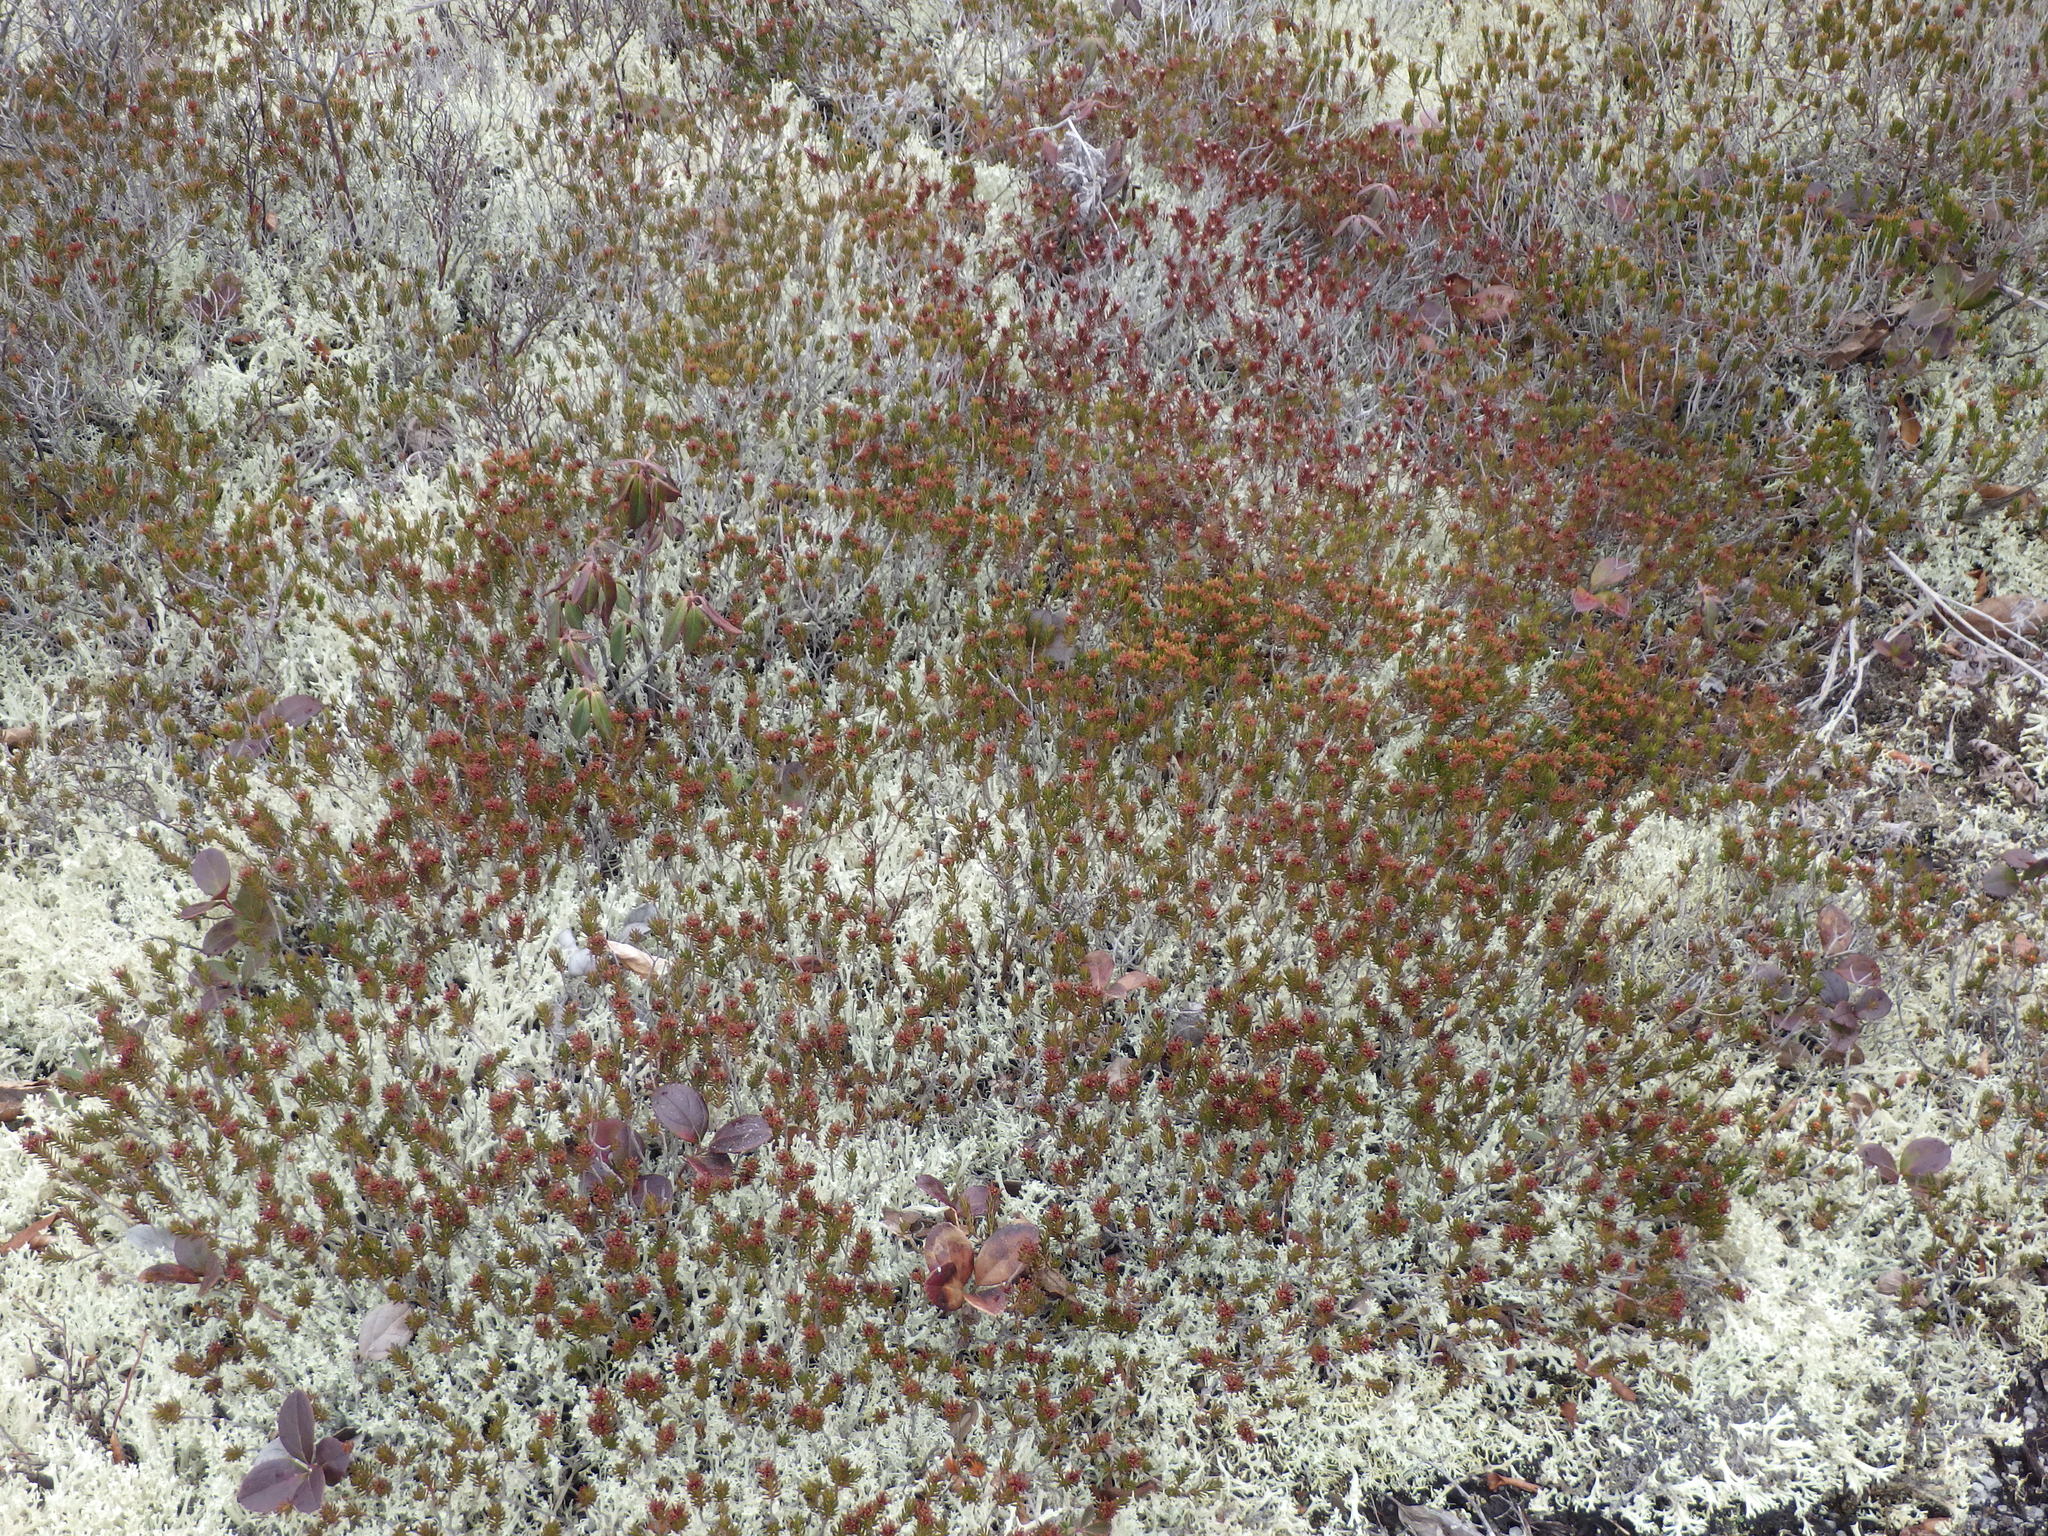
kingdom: Plantae
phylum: Tracheophyta
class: Magnoliopsida
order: Ericales
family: Ericaceae
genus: Corema
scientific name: Corema conradii
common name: Broom-crowberry
